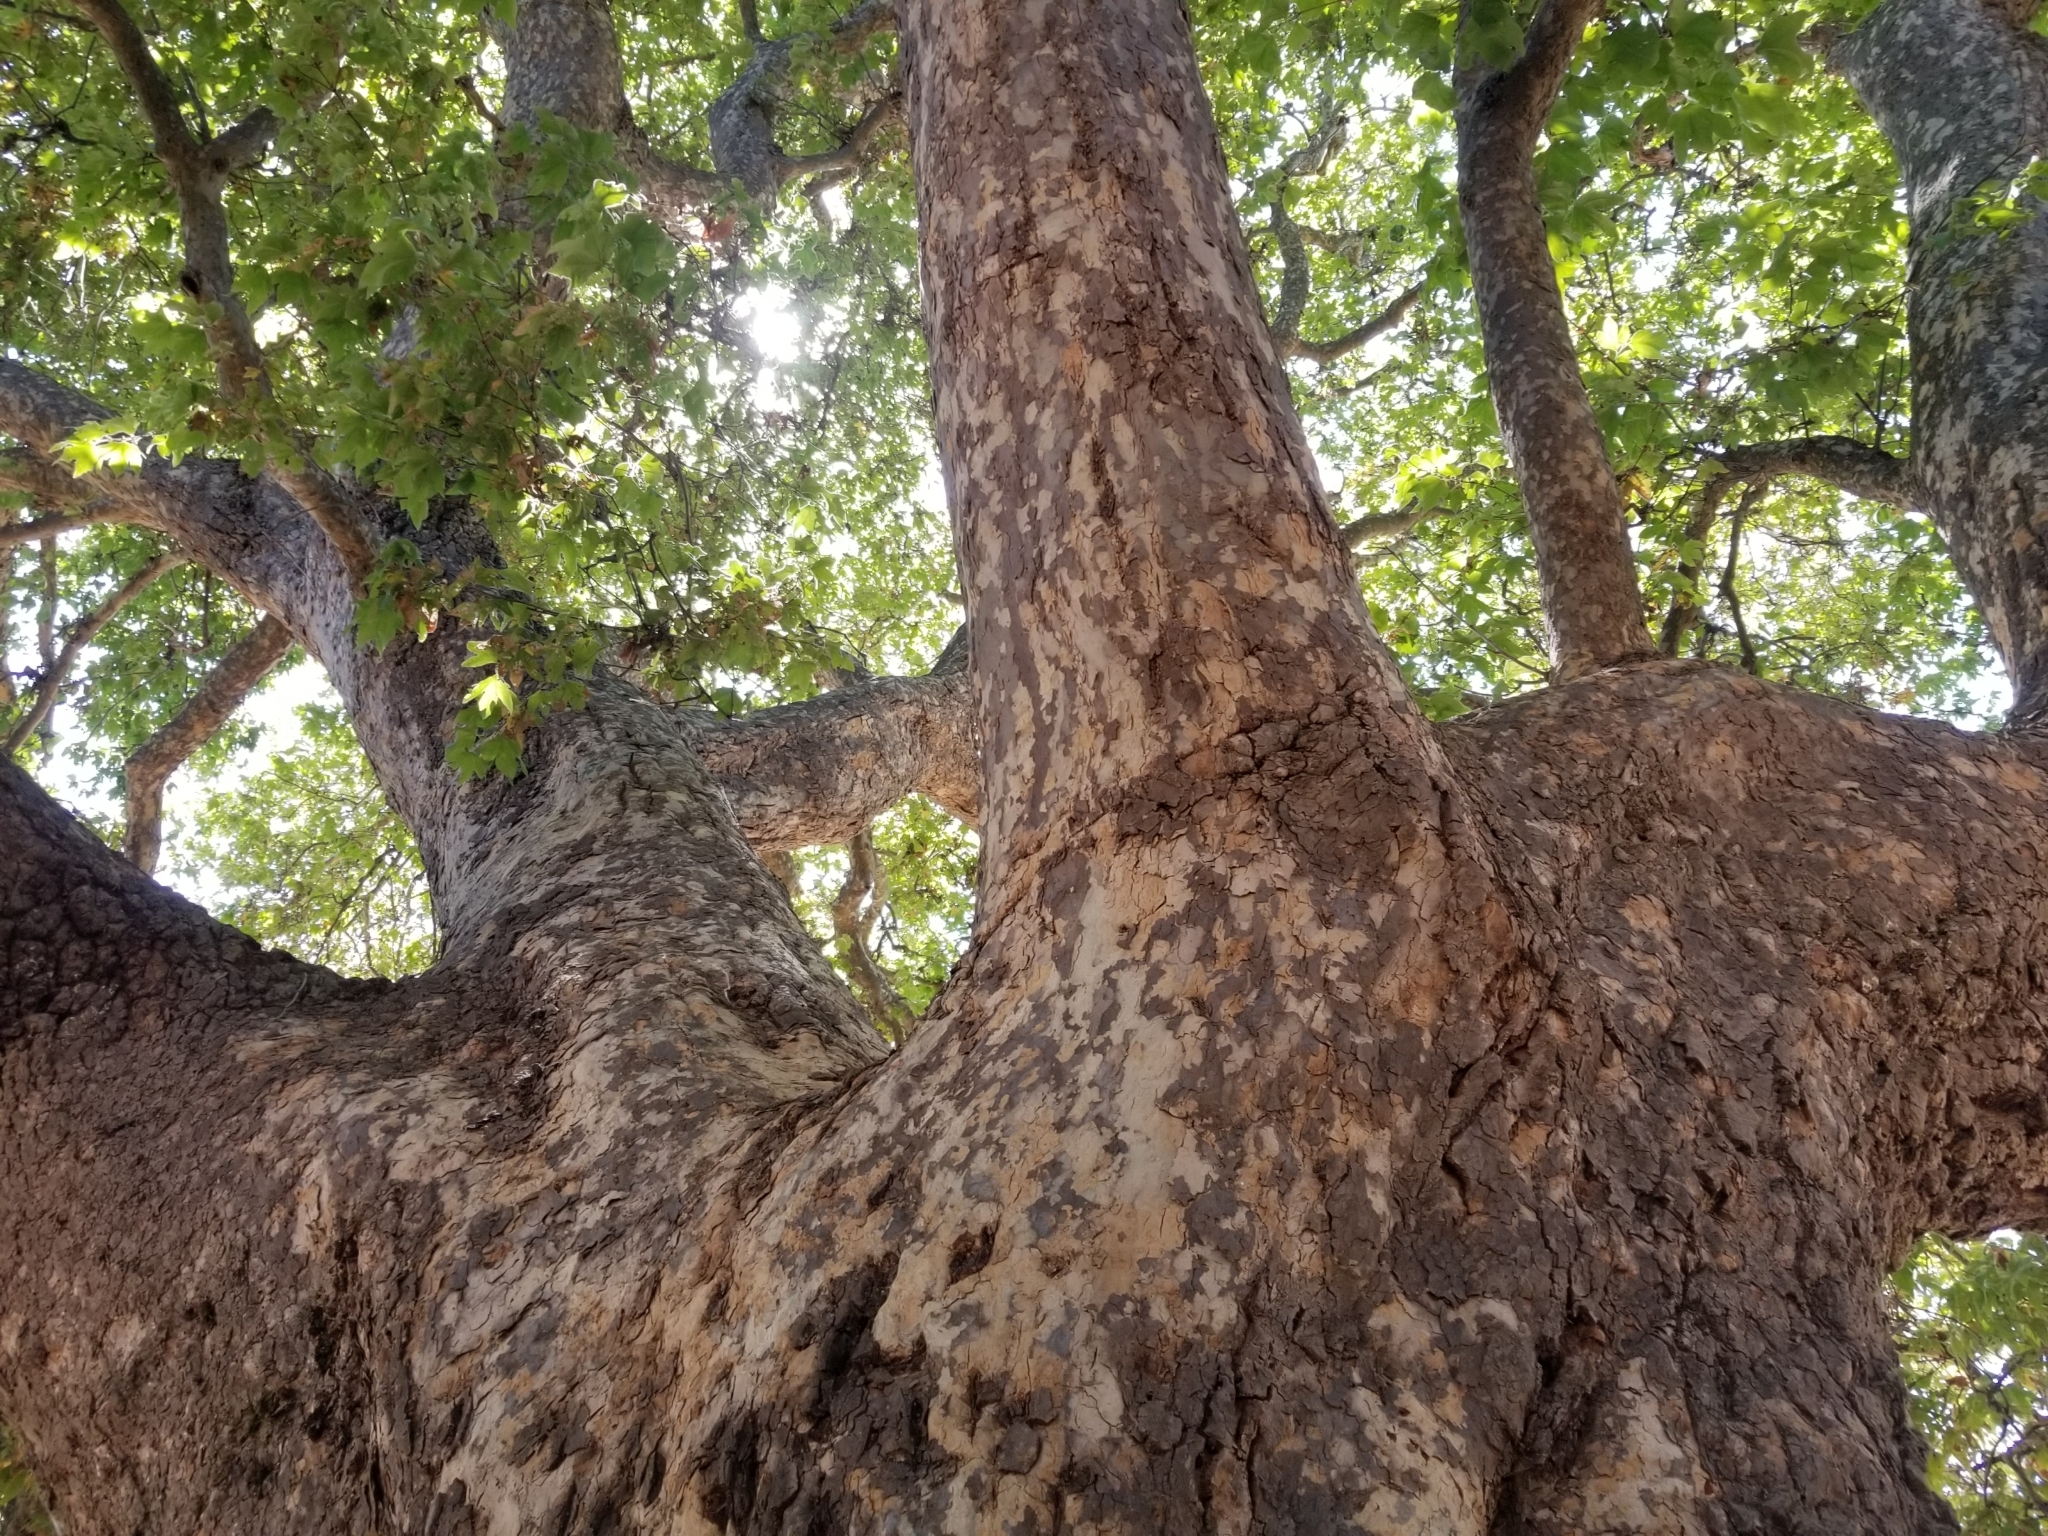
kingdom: Plantae
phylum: Tracheophyta
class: Magnoliopsida
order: Proteales
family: Platanaceae
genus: Platanus
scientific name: Platanus racemosa
